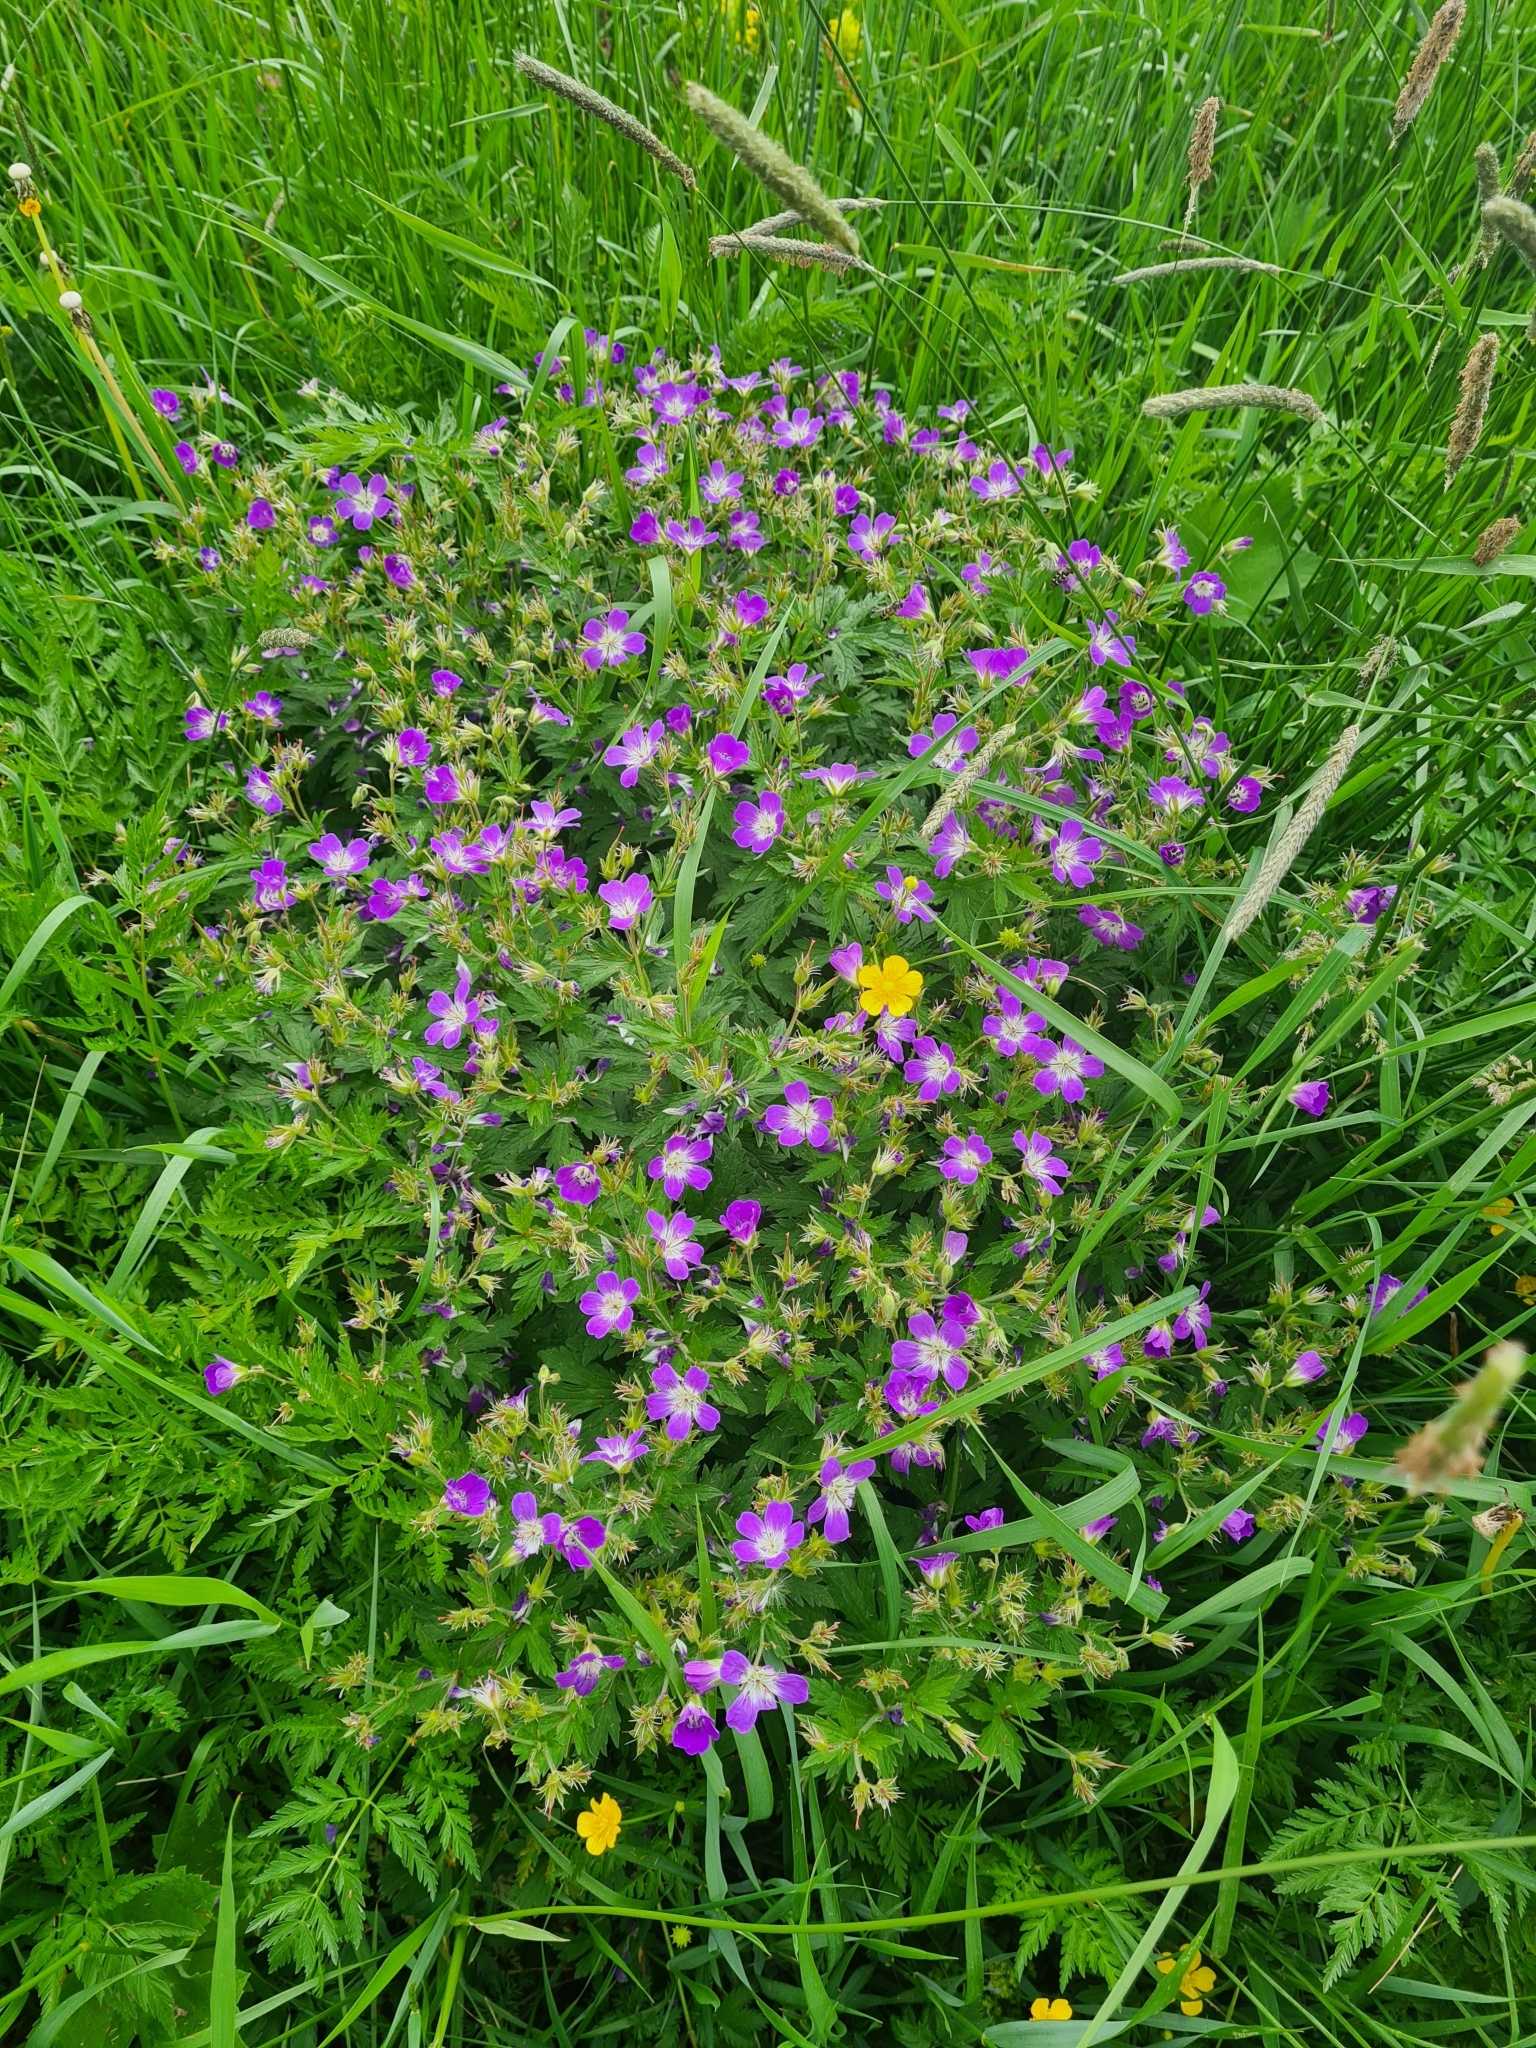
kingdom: Plantae
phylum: Tracheophyta
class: Magnoliopsida
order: Geraniales
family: Geraniaceae
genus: Geranium
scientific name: Geranium sylvaticum
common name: Wood crane's-bill
